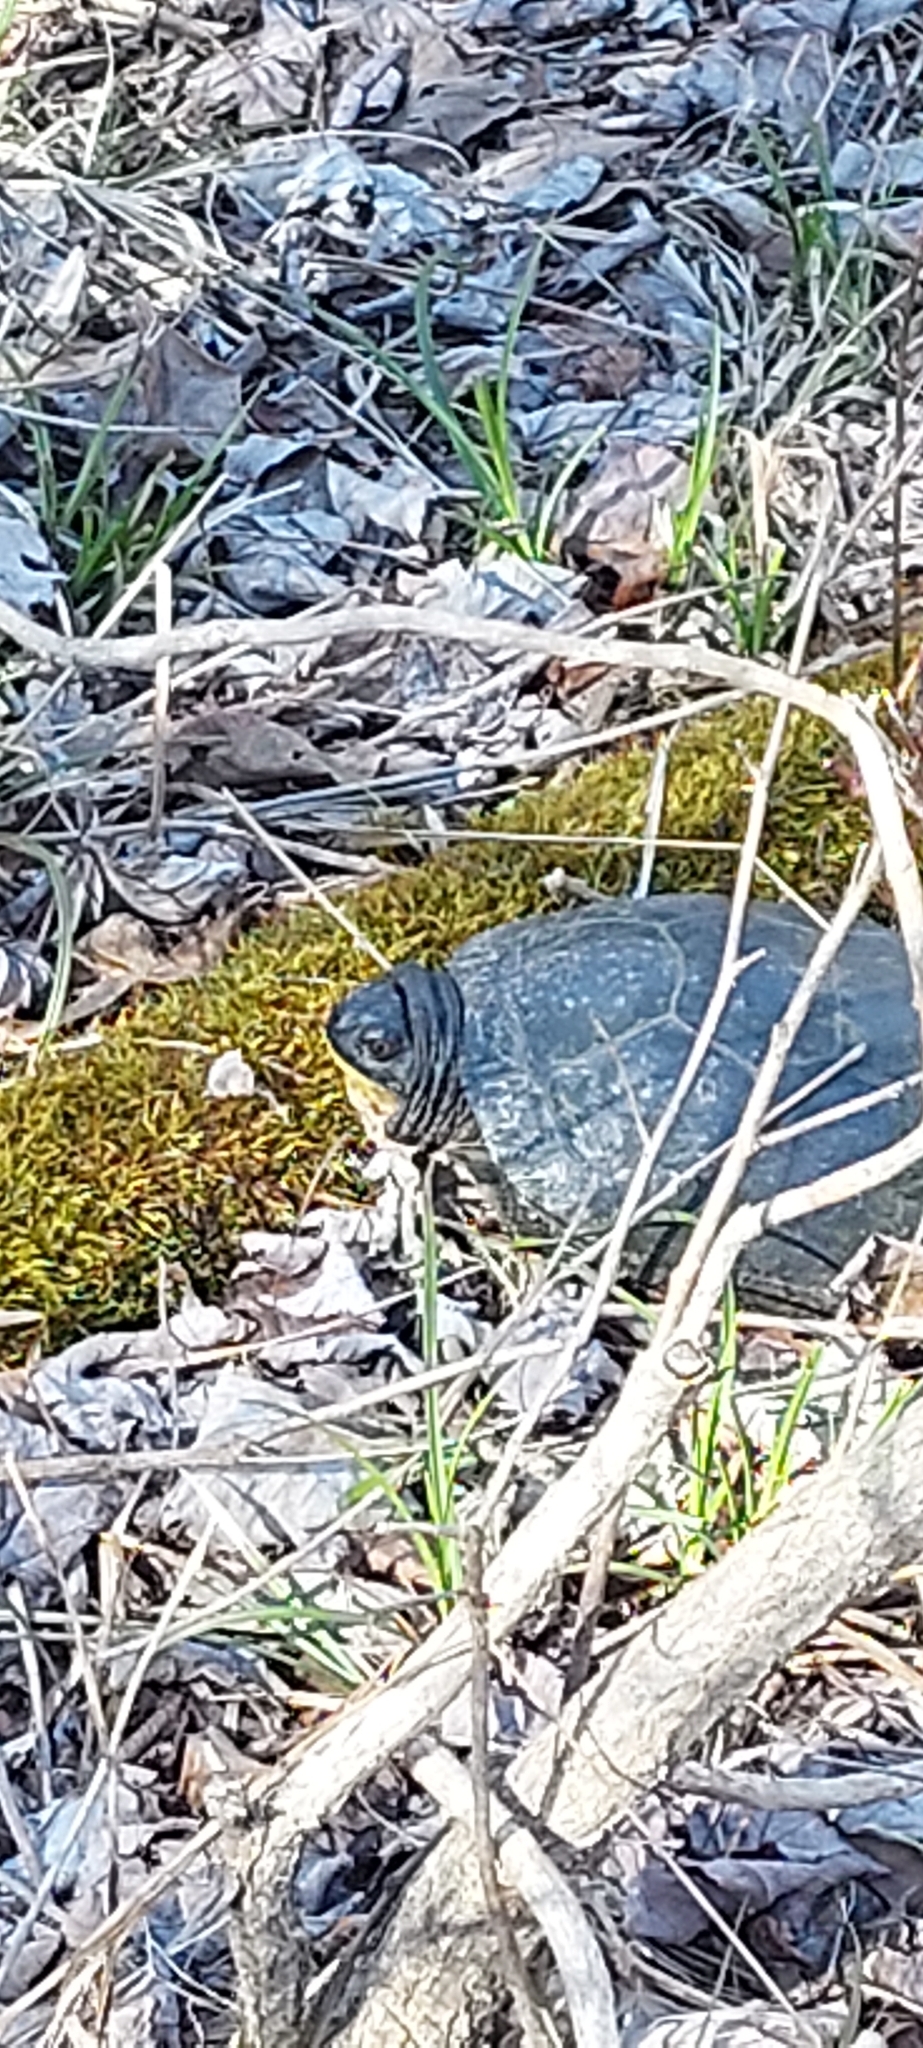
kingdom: Animalia
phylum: Chordata
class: Testudines
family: Emydidae
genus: Emys
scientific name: Emys blandingii
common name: Blanding's turtle
